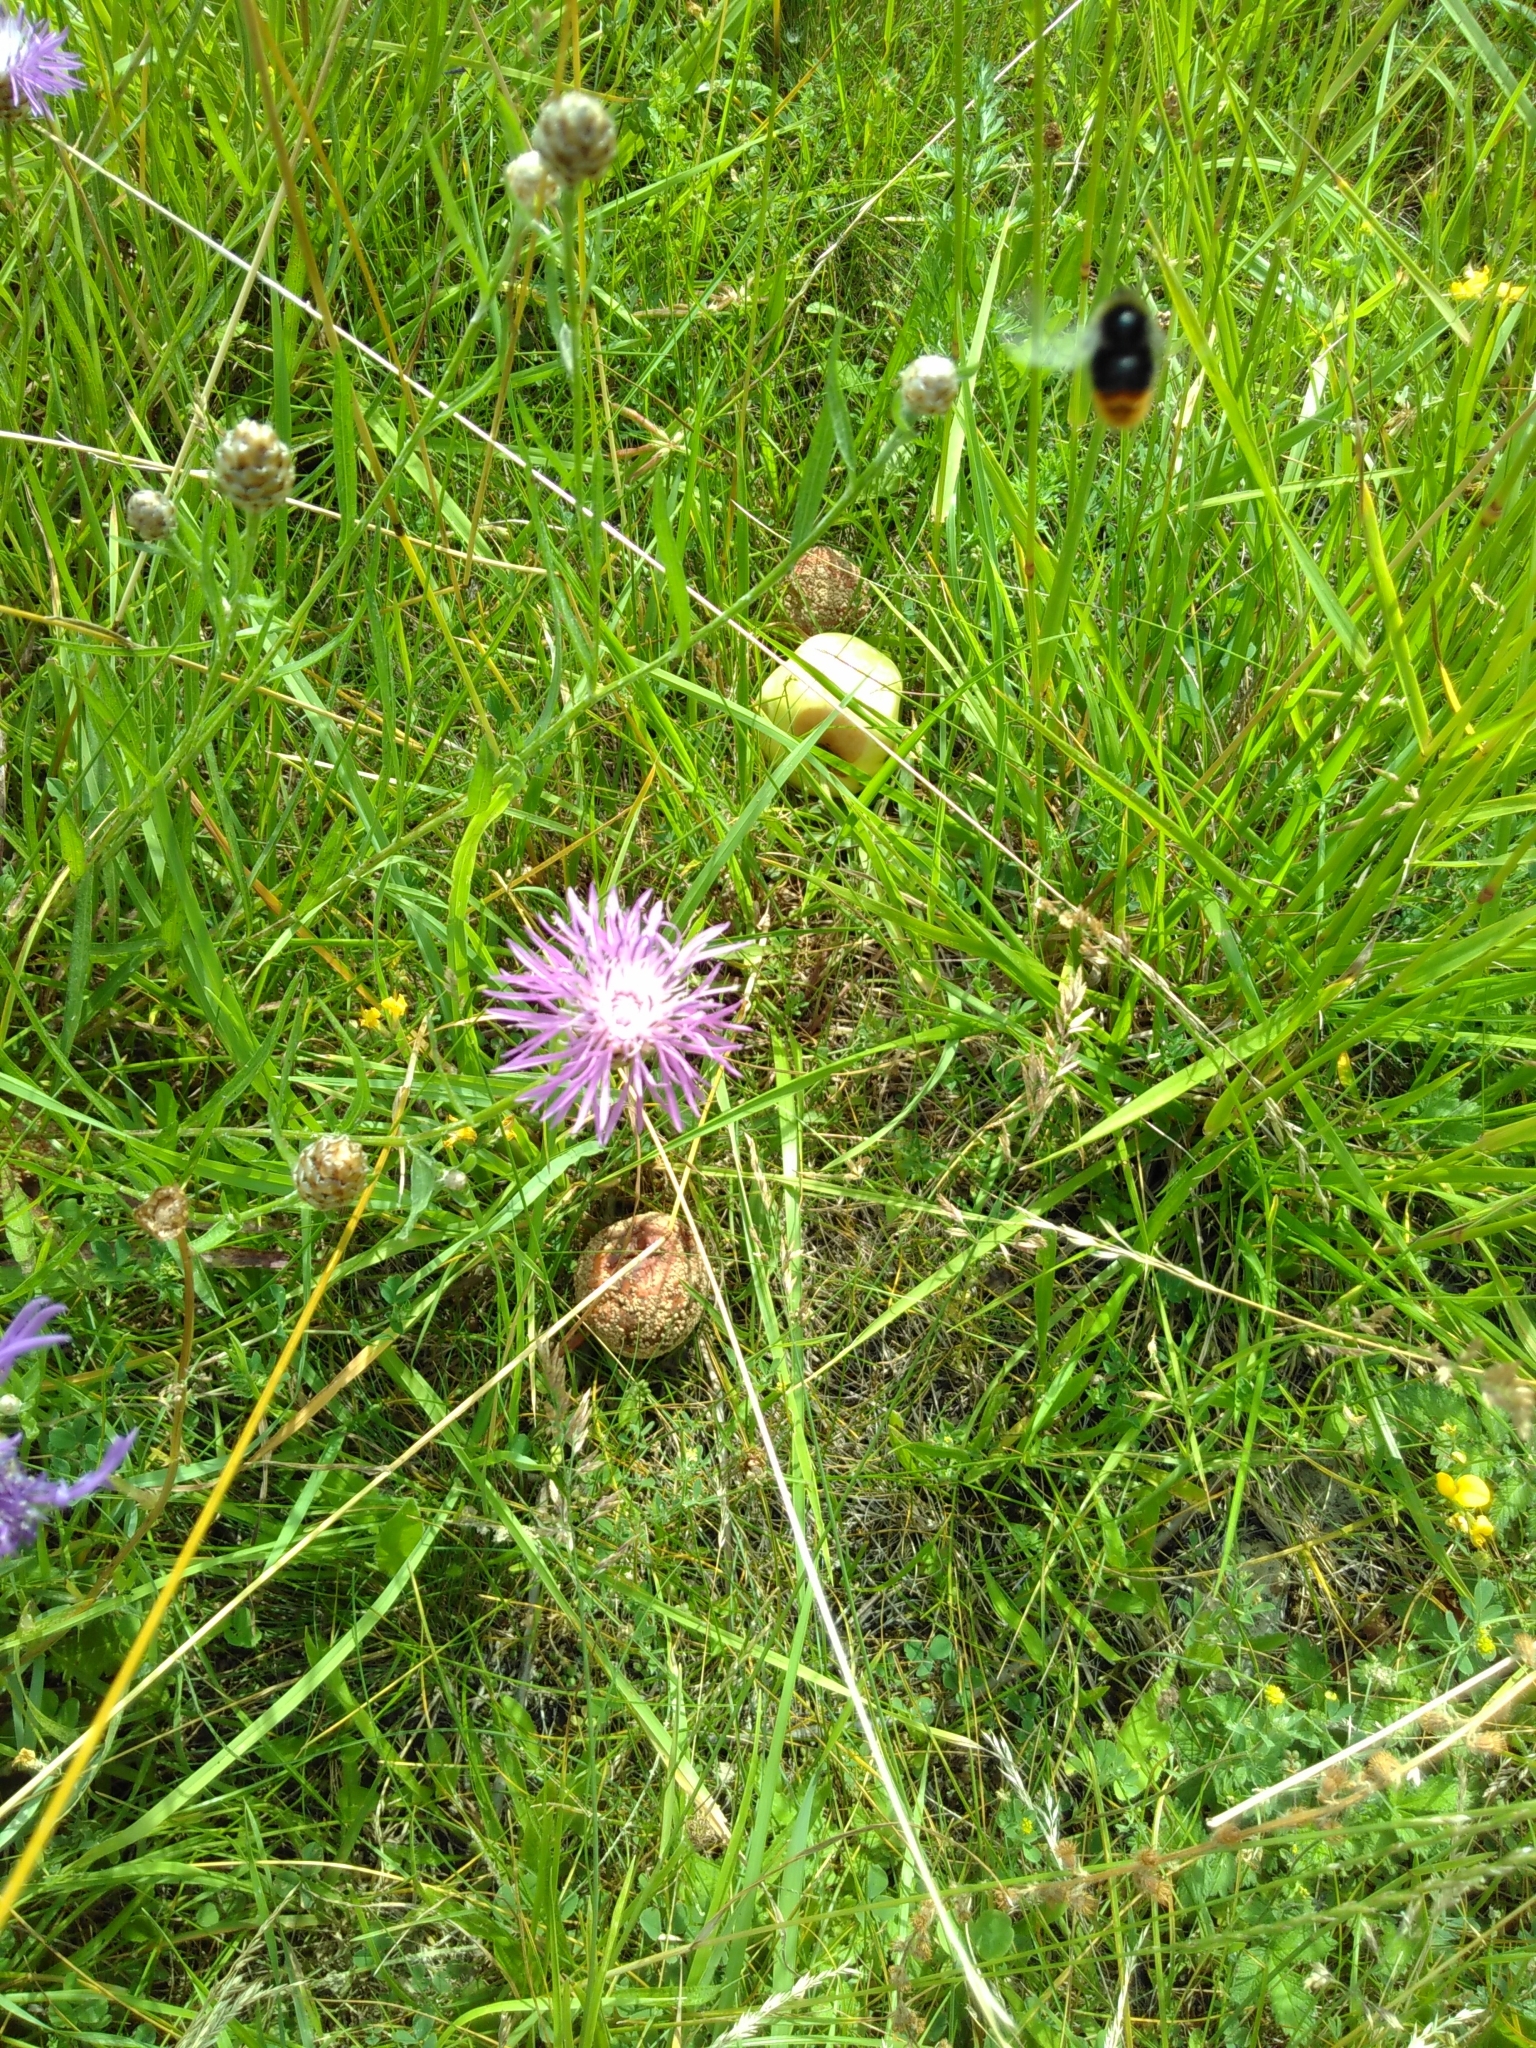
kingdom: Plantae
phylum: Tracheophyta
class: Magnoliopsida
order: Asterales
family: Asteraceae
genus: Centaurea
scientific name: Centaurea jacea
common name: Brown knapweed
